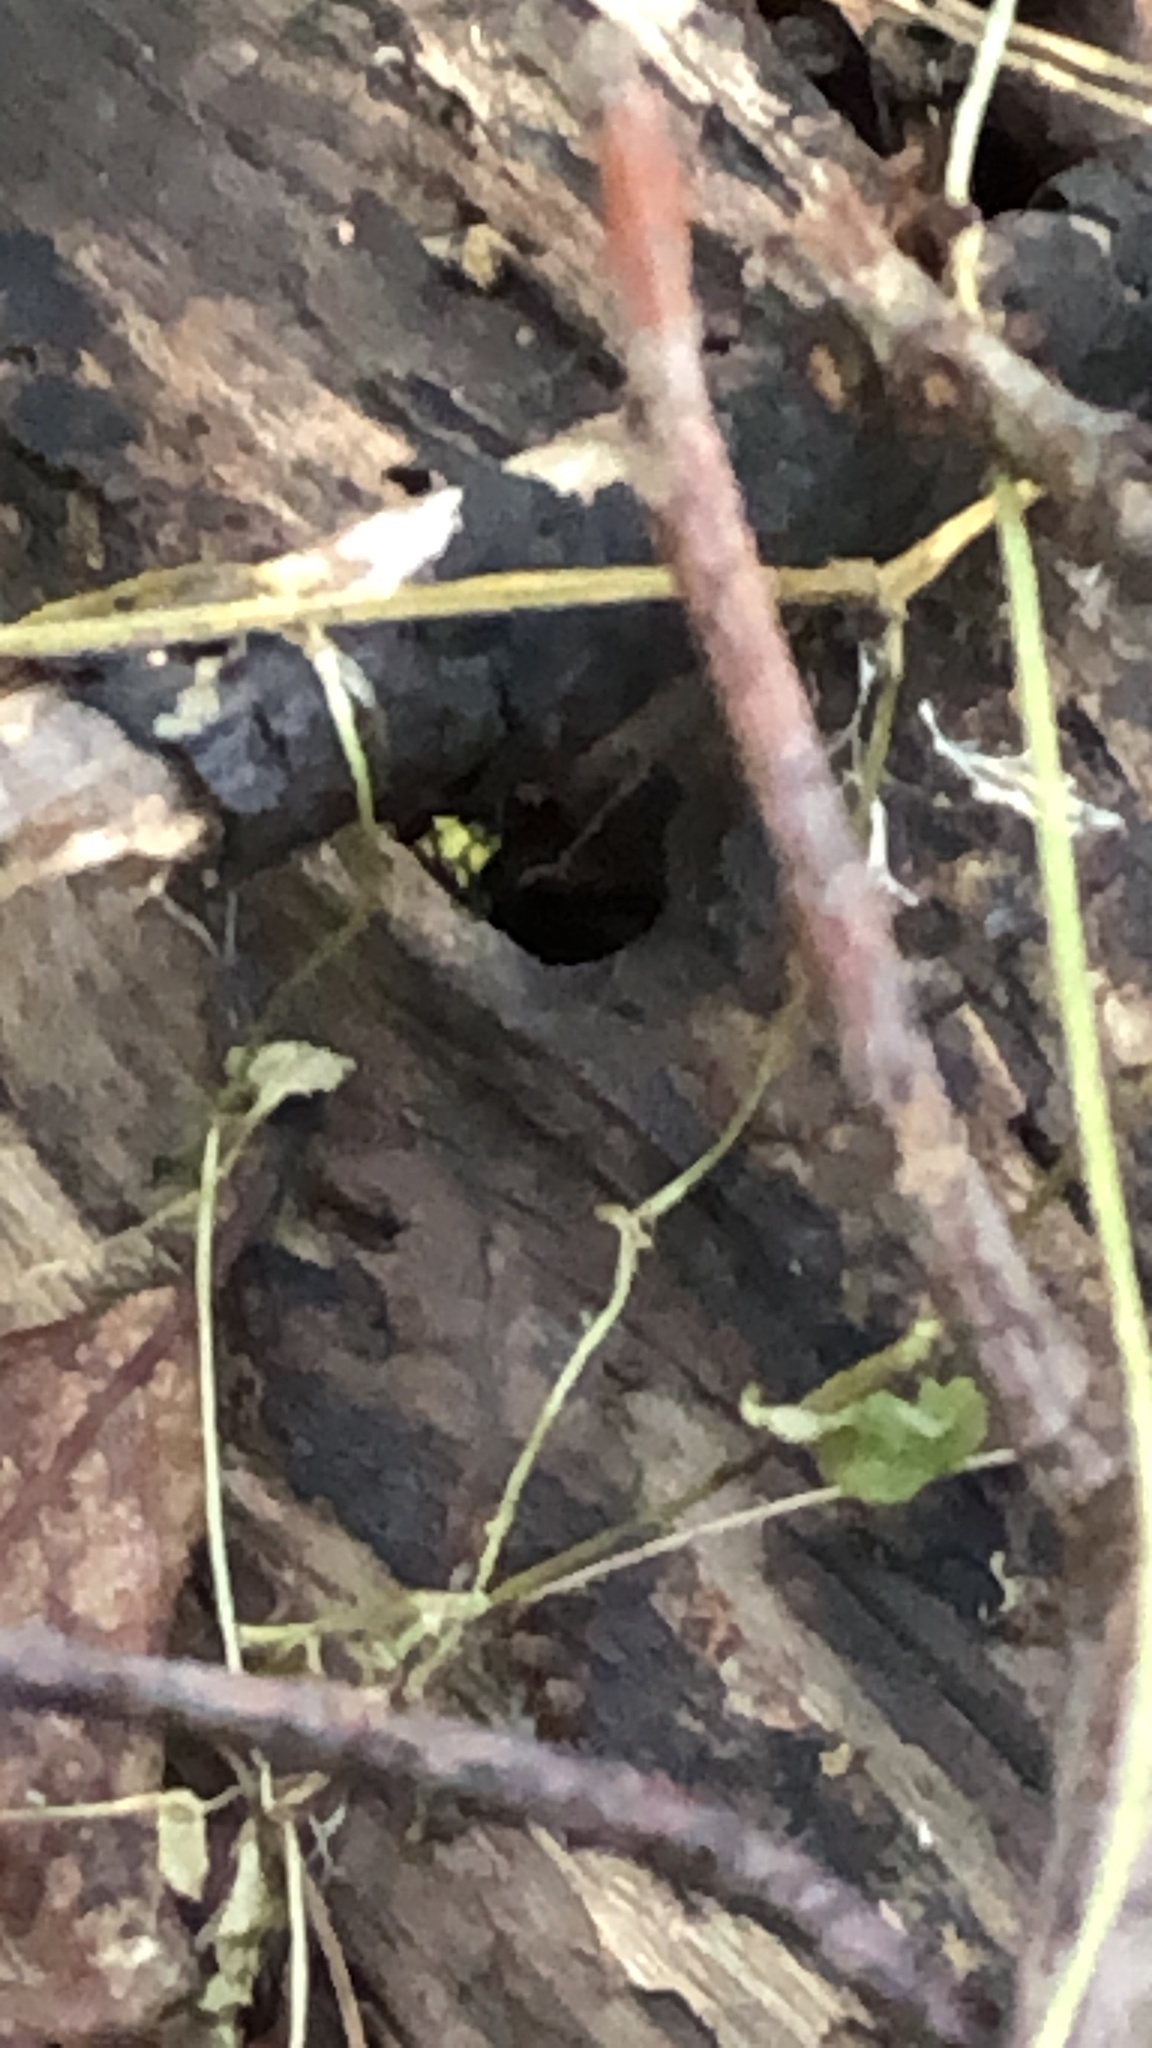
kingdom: Animalia
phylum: Arthropoda
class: Insecta
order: Hymenoptera
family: Vespidae
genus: Vespula
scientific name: Vespula
